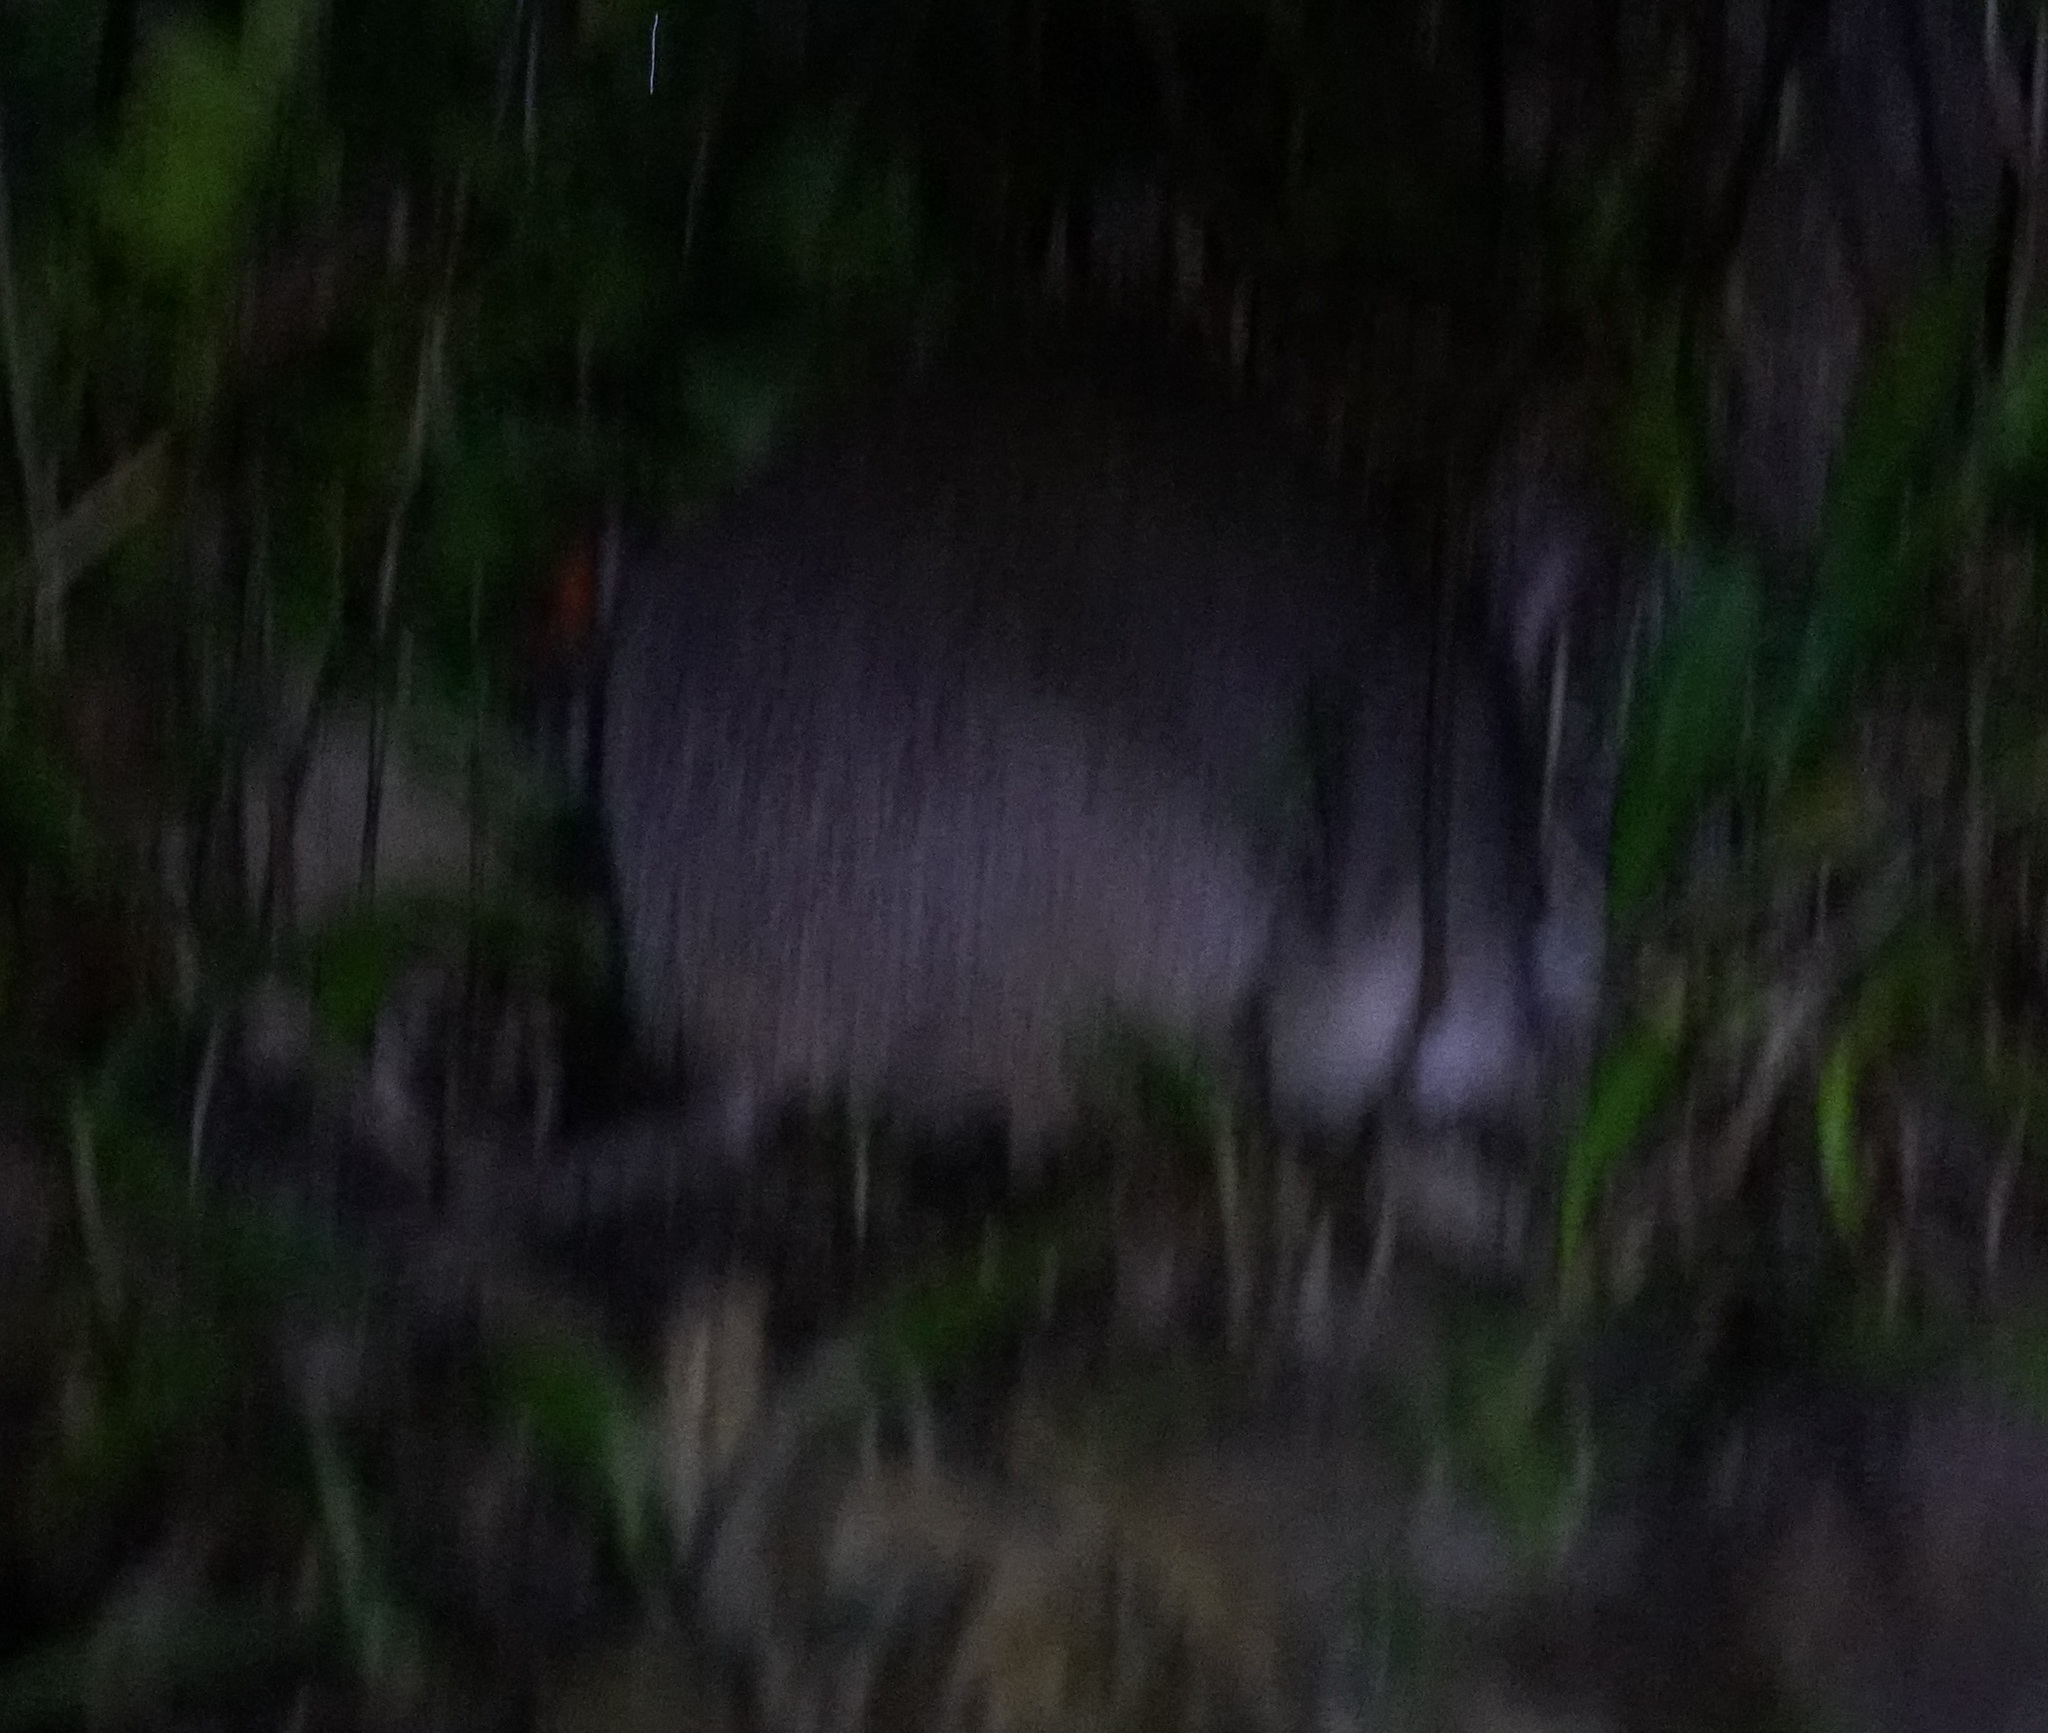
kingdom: Animalia
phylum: Chordata
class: Mammalia
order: Peramelemorphia
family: Peramelidae
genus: Perameles
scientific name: Perameles pallescens
